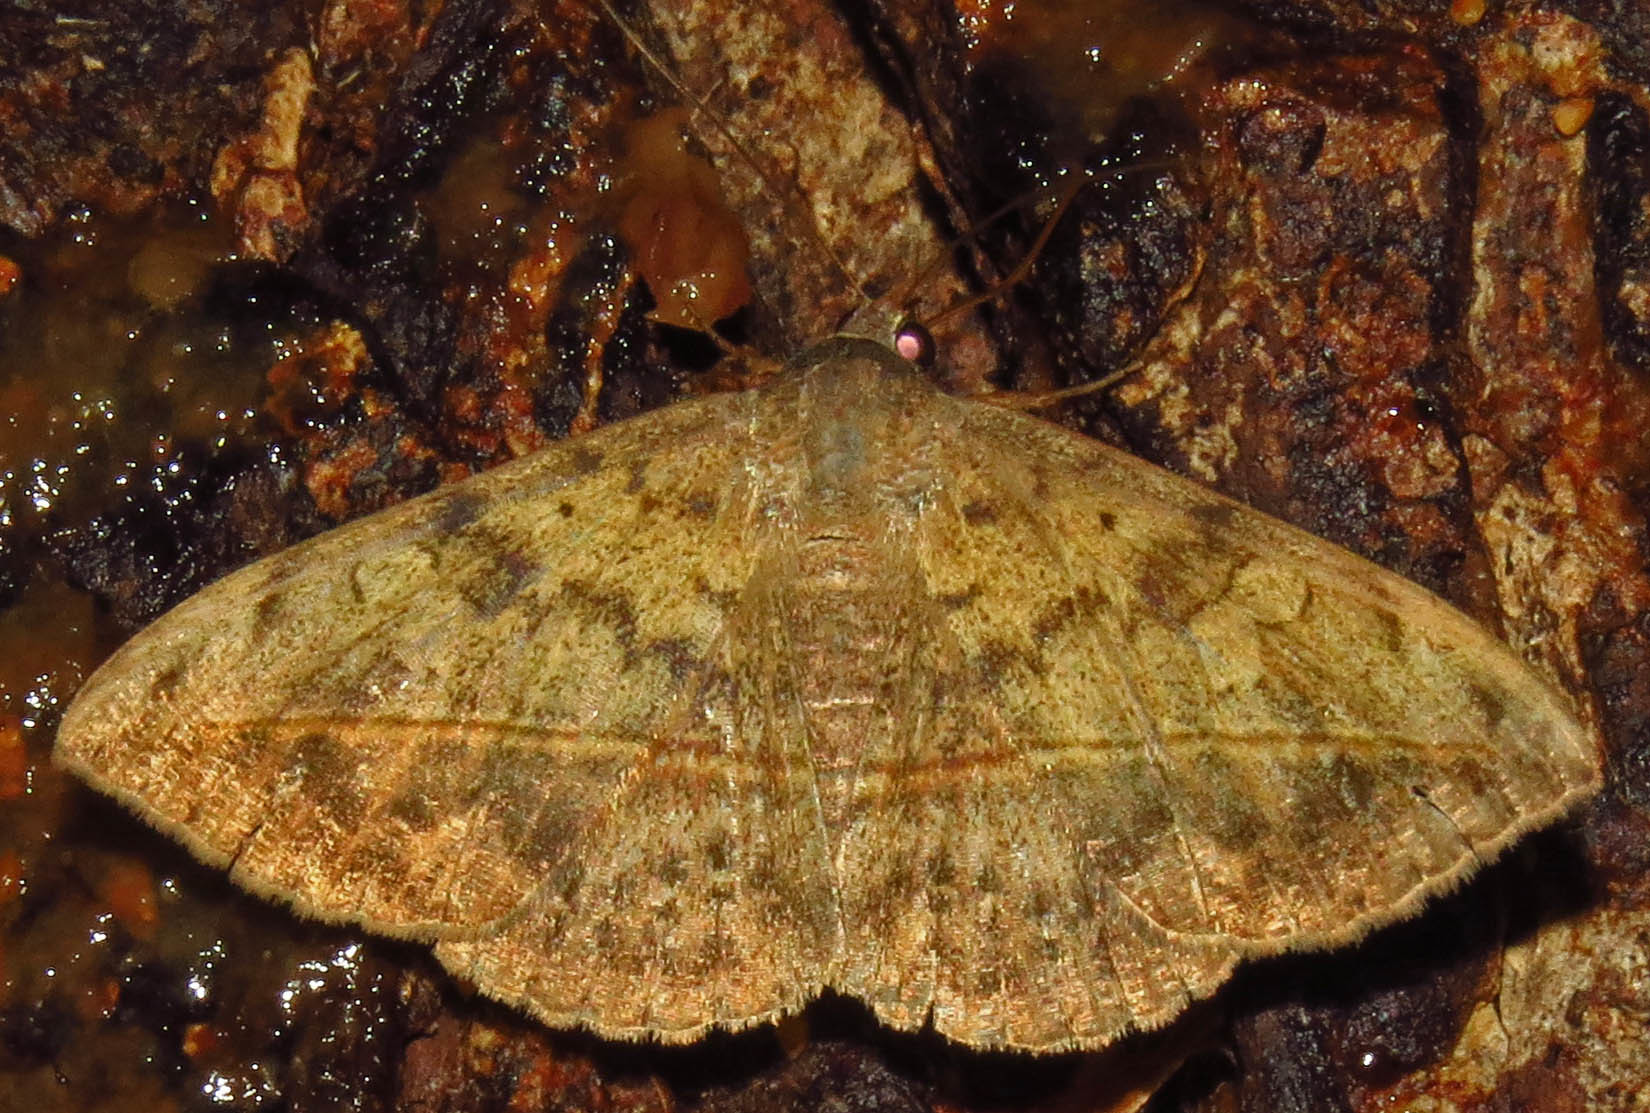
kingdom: Animalia
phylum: Arthropoda
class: Insecta
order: Lepidoptera
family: Erebidae
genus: Anticarsia
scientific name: Anticarsia gemmatalis
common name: Cutworm moth
